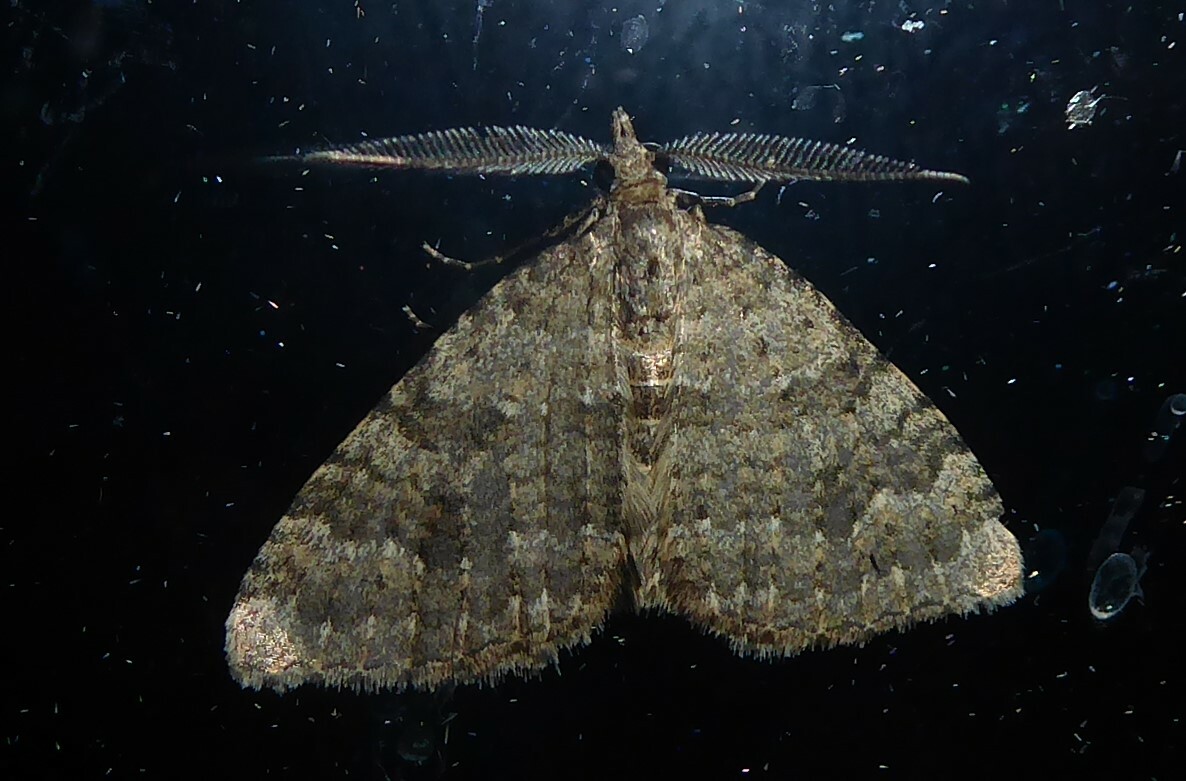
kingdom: Animalia
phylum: Arthropoda
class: Insecta
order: Lepidoptera
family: Geometridae
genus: Helastia
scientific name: Helastia corcularia
